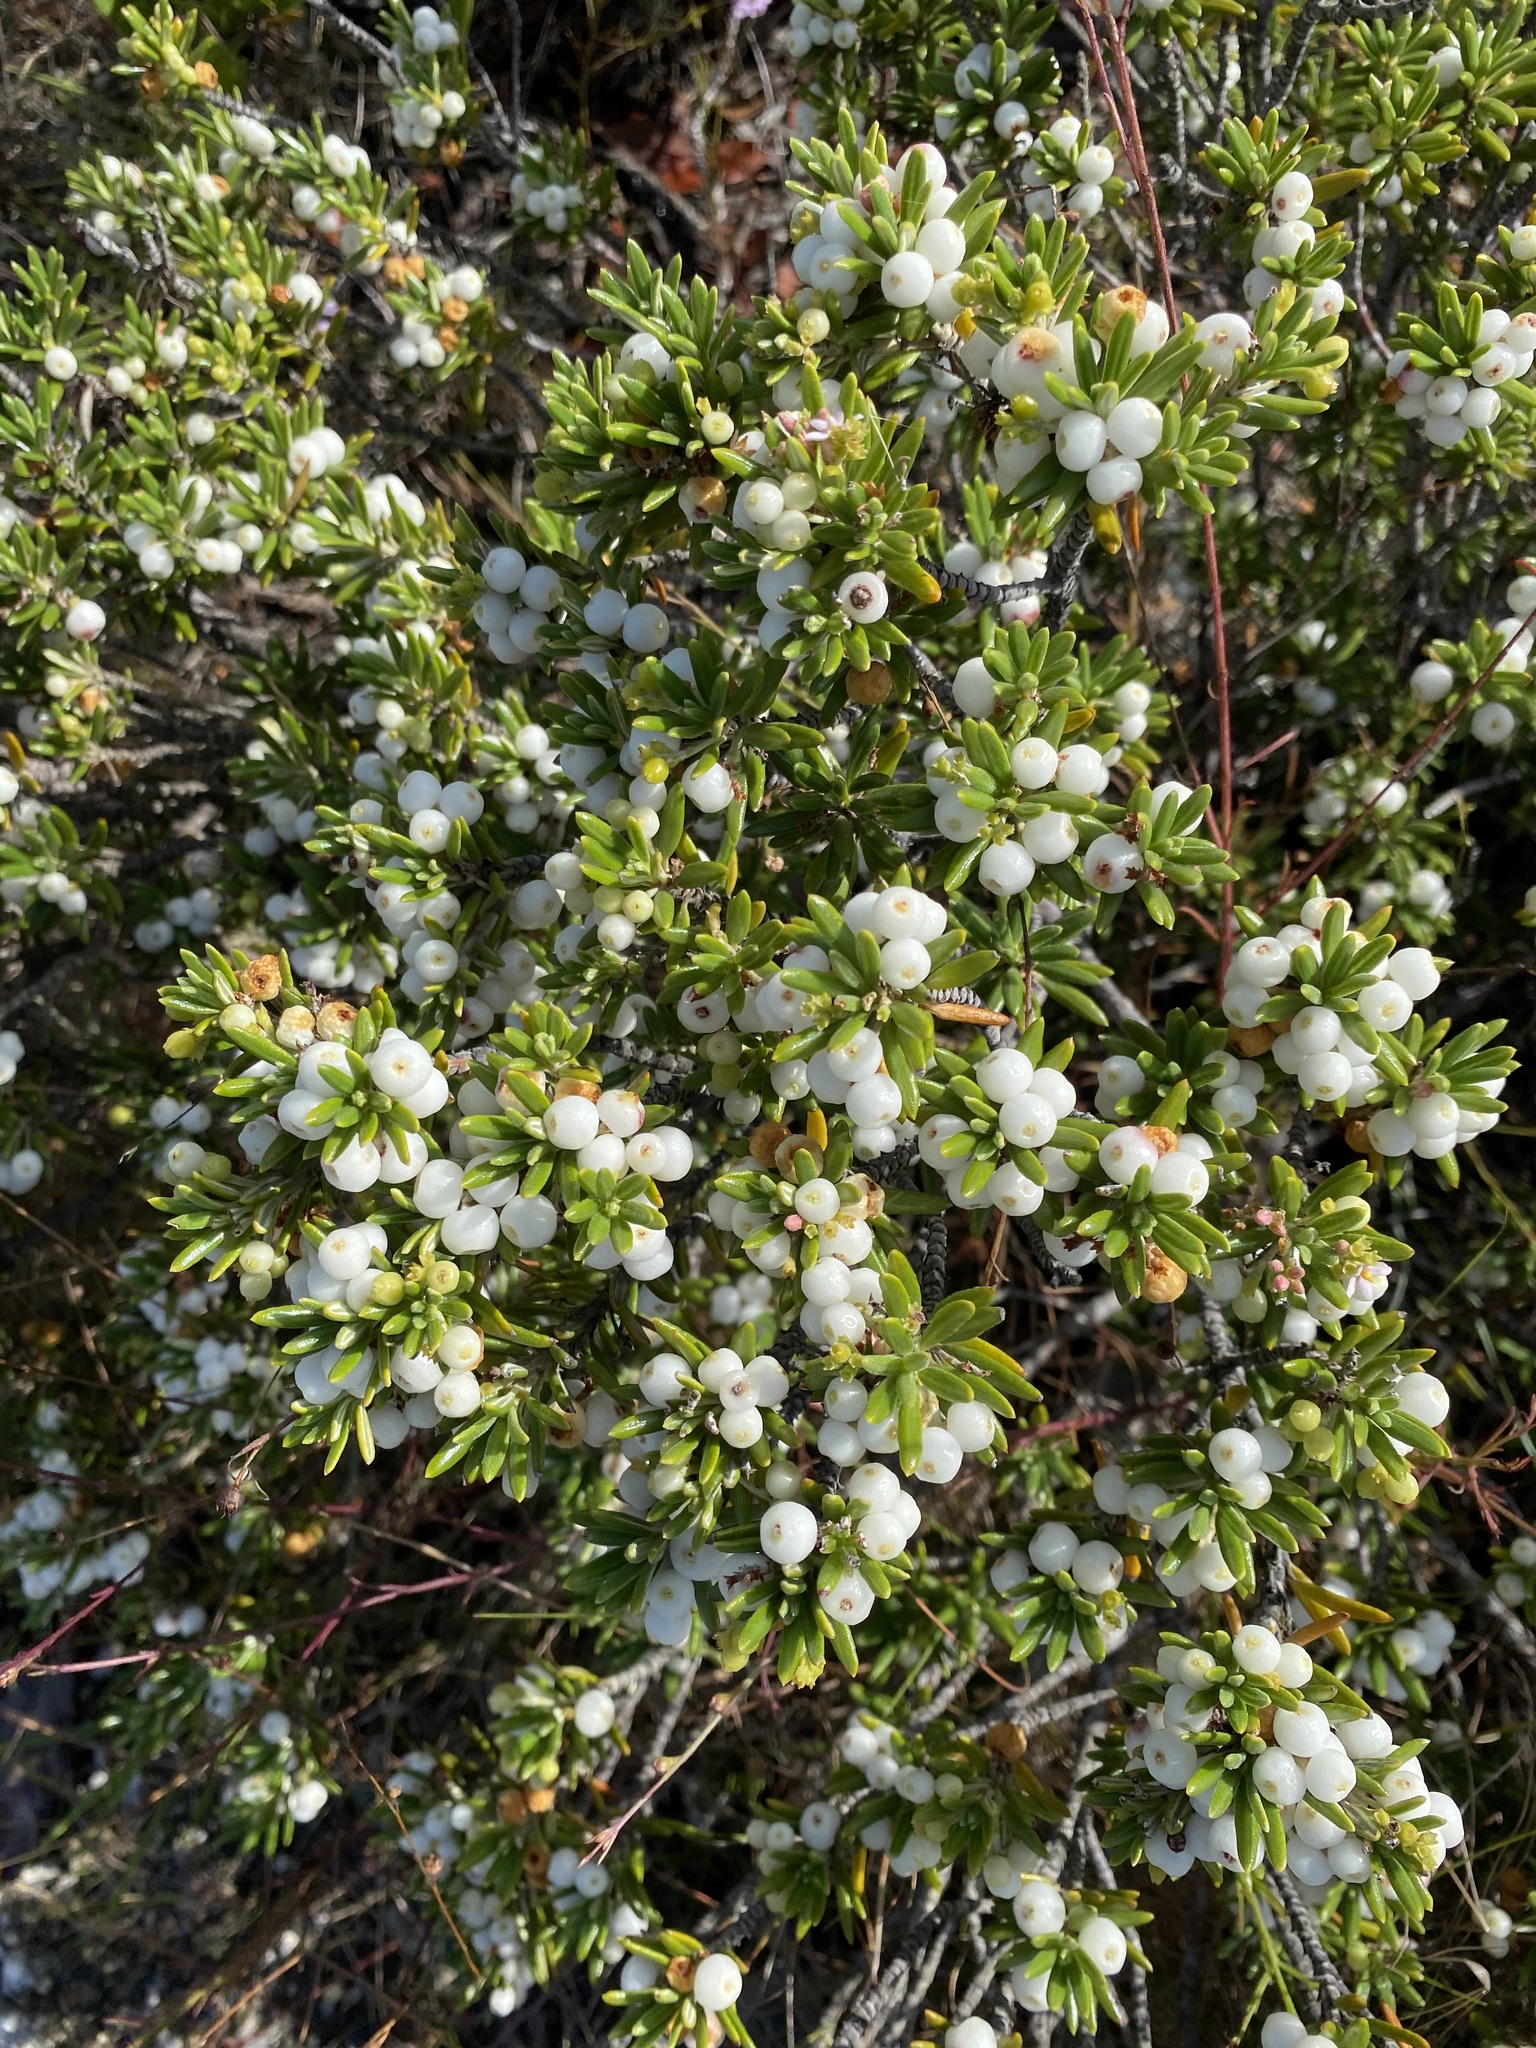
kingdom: Plantae
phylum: Tracheophyta
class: Magnoliopsida
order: Gentianales
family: Rubiaceae
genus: Strumpfia
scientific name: Strumpfia maritima
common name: Pride-of-big pine
